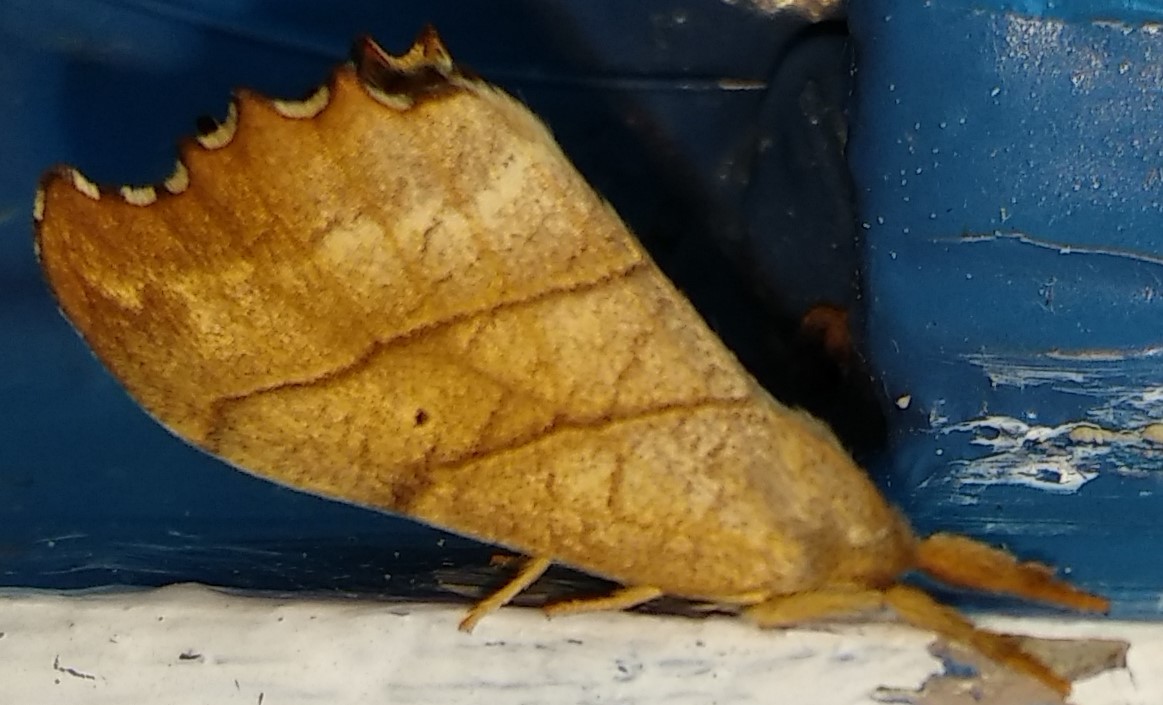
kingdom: Animalia
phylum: Arthropoda
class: Insecta
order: Lepidoptera
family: Drepanidae
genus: Falcaria
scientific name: Falcaria bilineata
